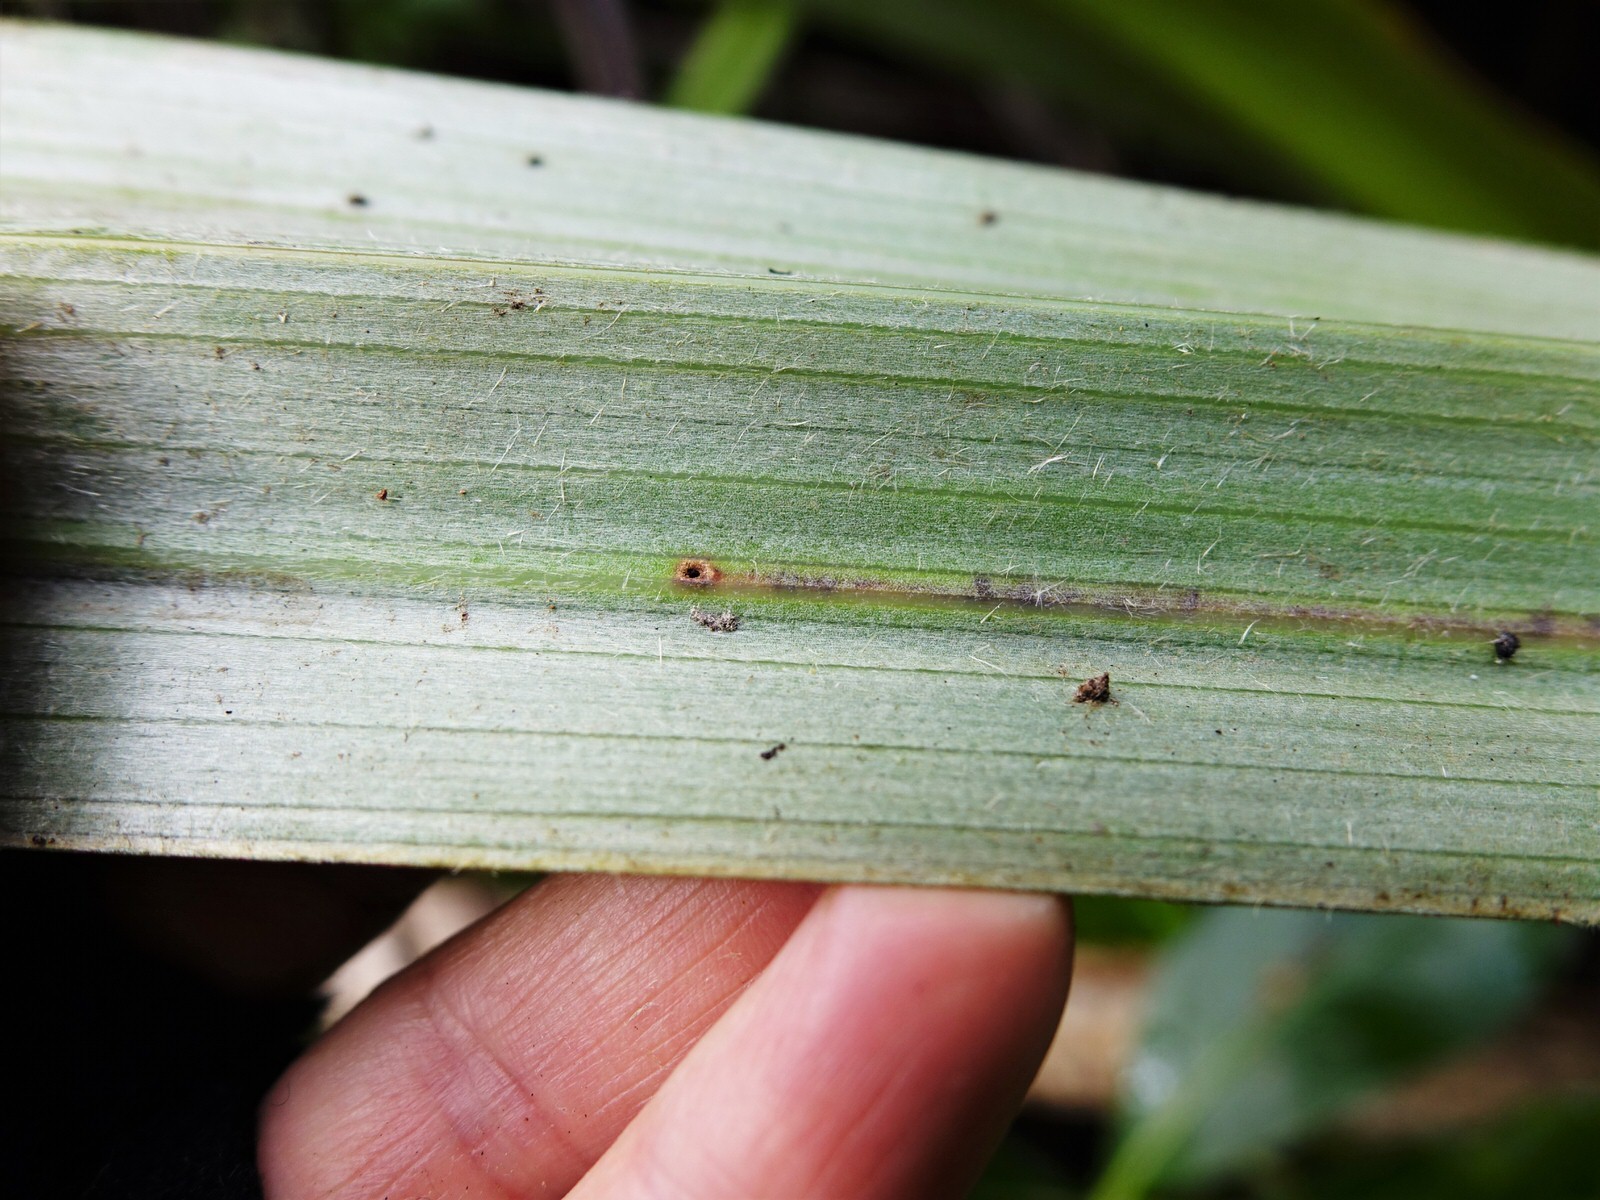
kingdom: Animalia
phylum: Arthropoda
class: Insecta
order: Coleoptera
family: Curculionidae
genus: Phorostichus
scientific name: Phorostichus linearis
